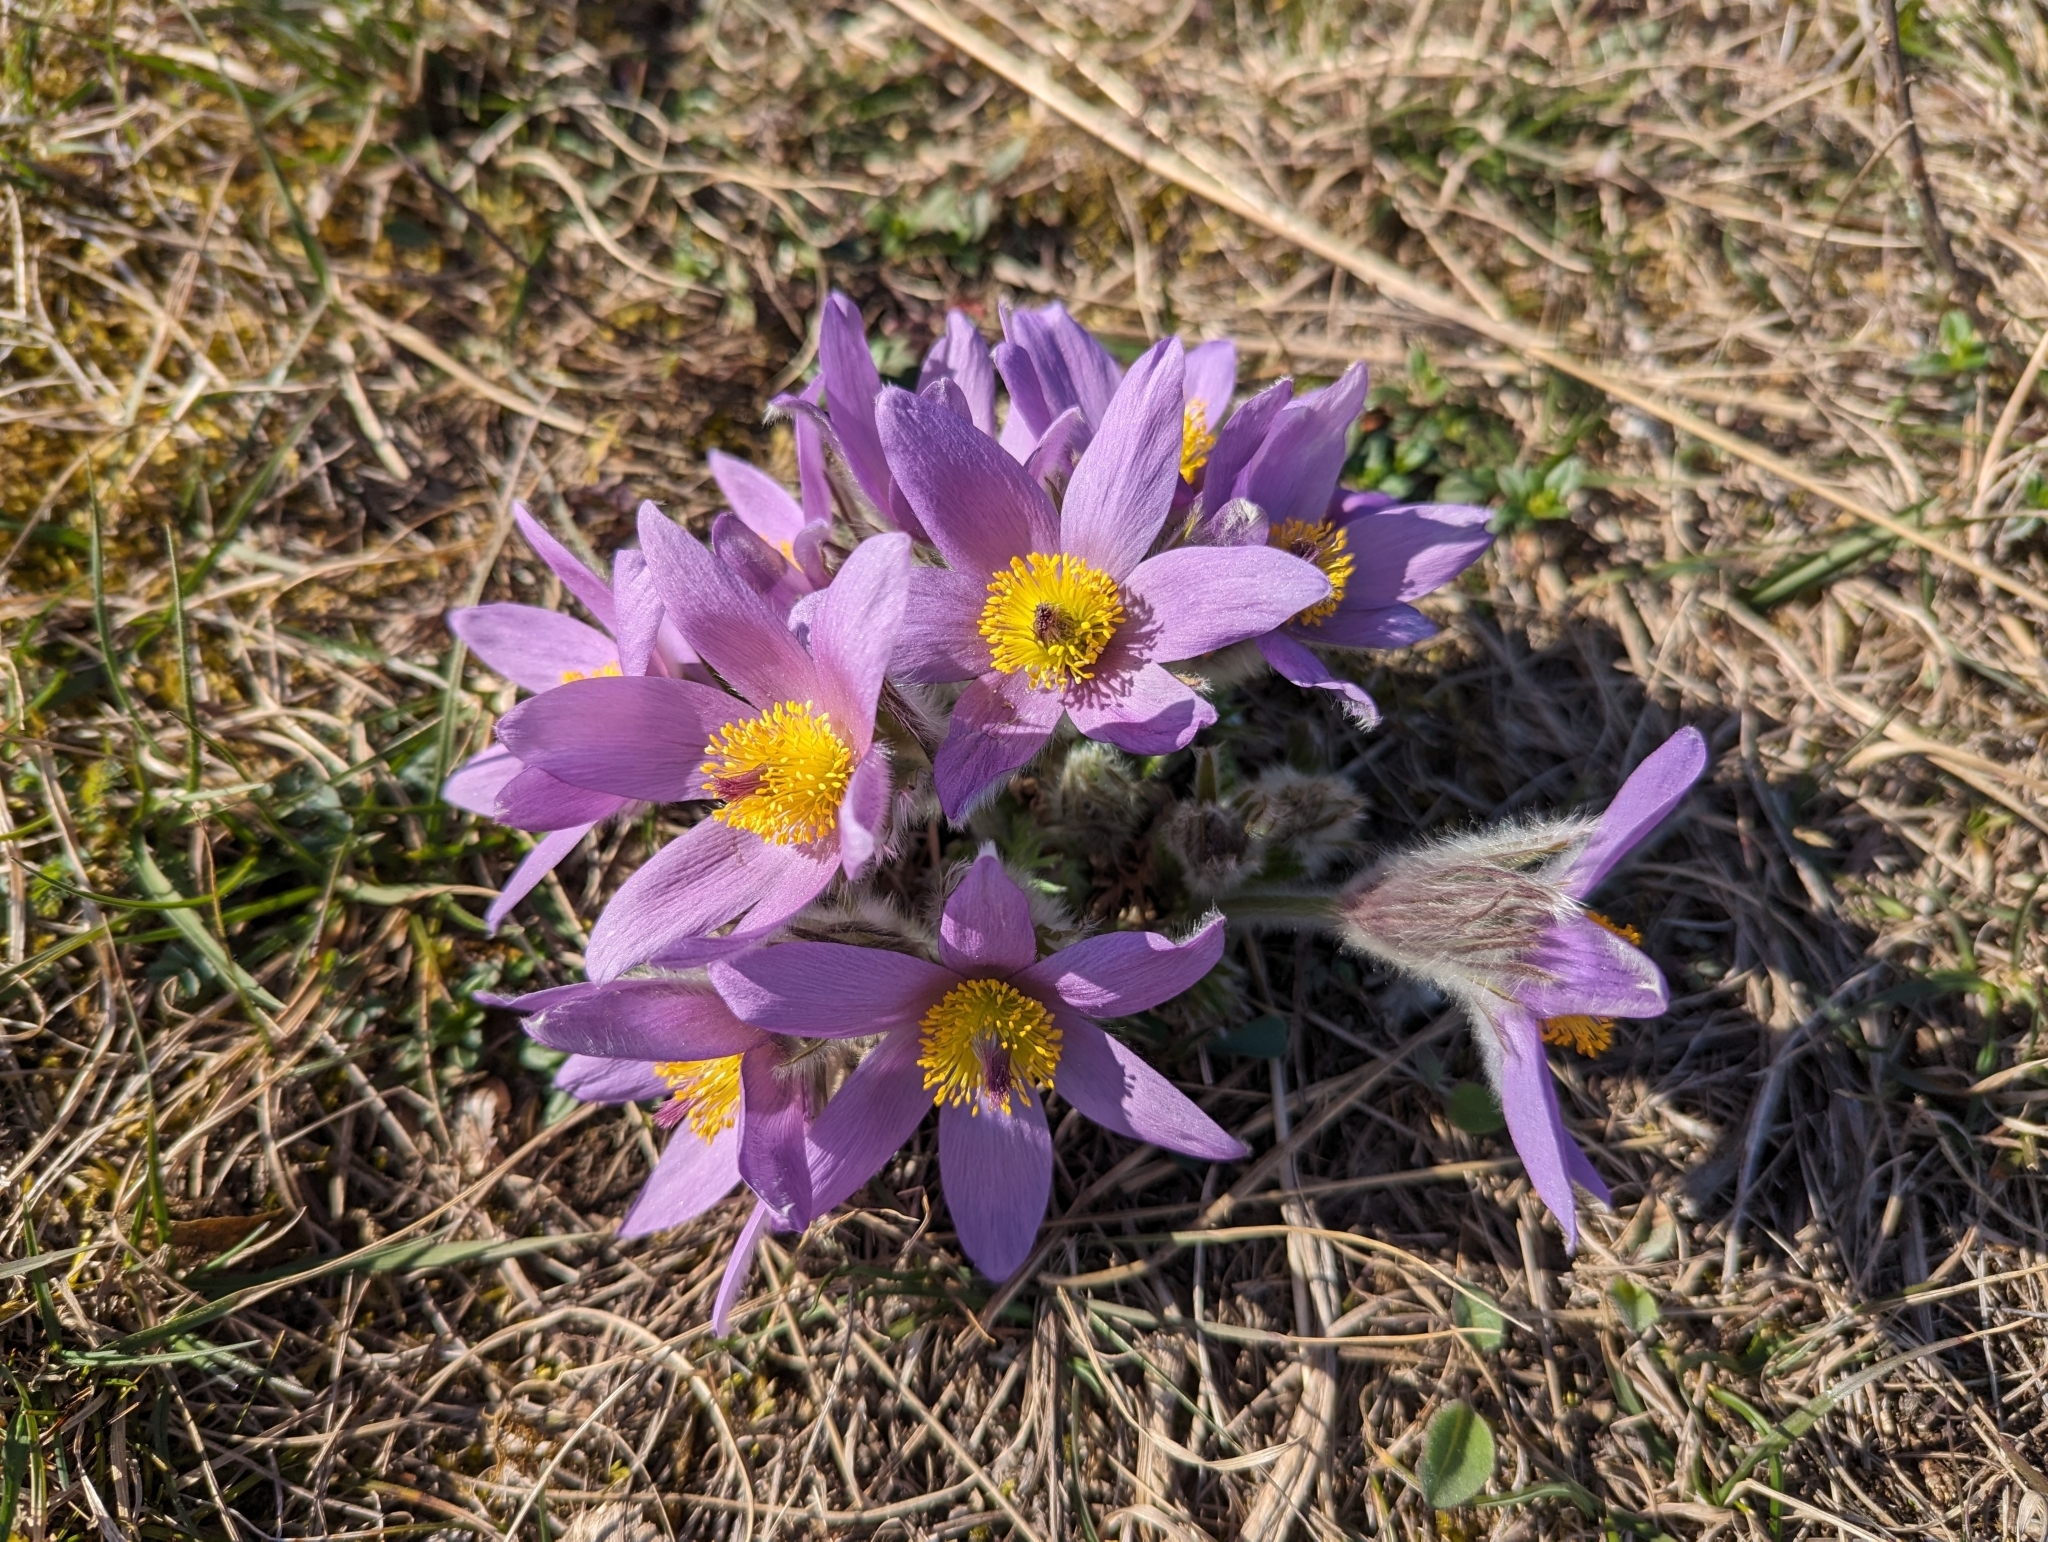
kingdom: Plantae
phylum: Tracheophyta
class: Magnoliopsida
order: Ranunculales
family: Ranunculaceae
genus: Pulsatilla
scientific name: Pulsatilla grandis
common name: Greater pasque flower
